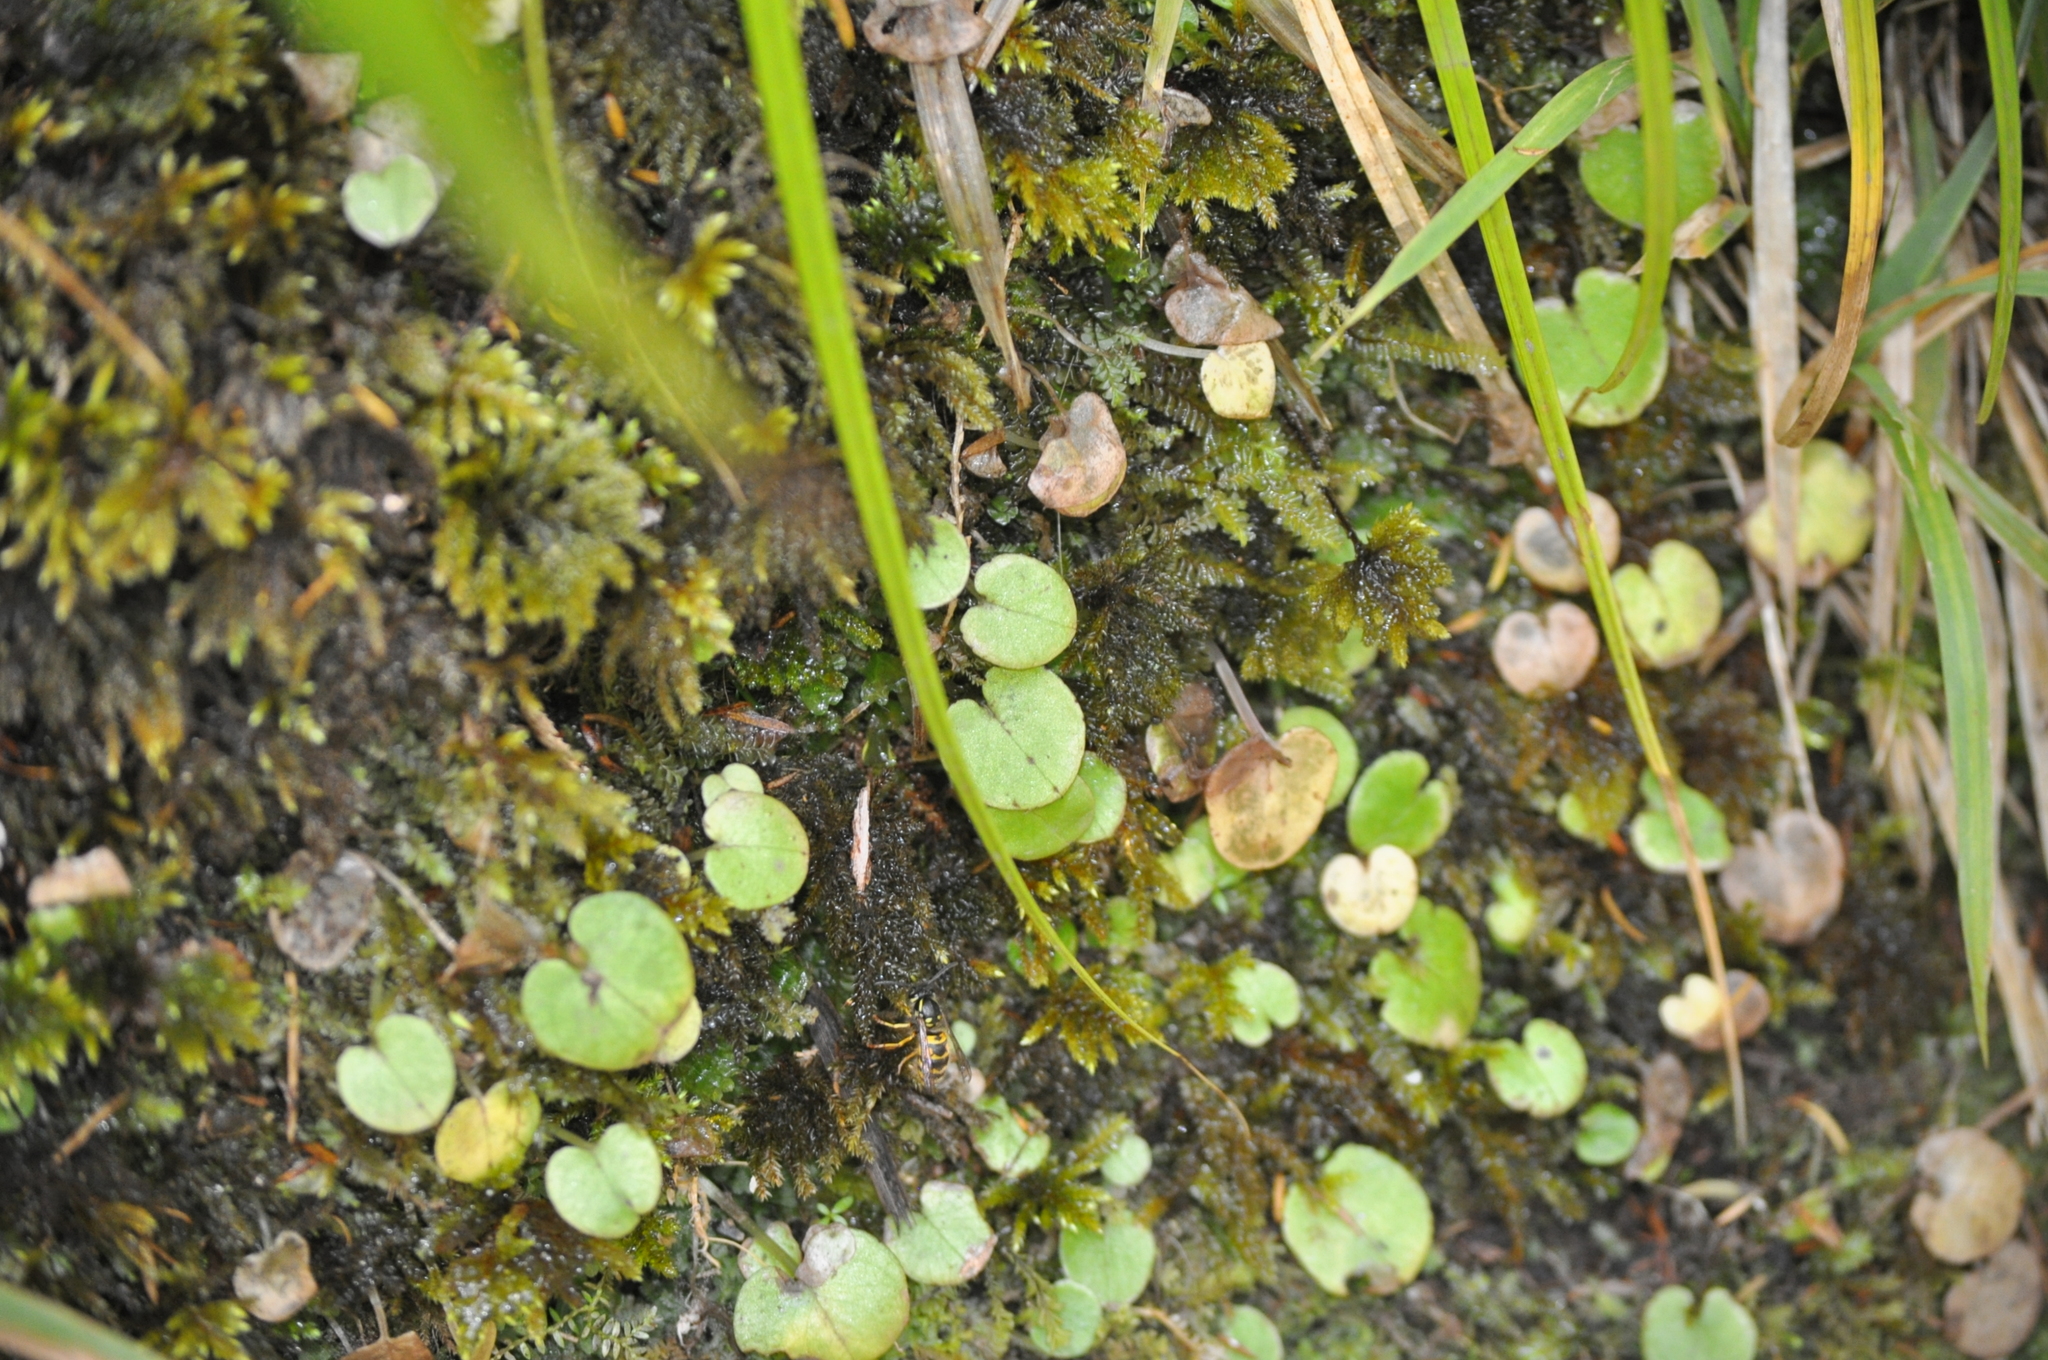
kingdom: Plantae
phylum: Tracheophyta
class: Liliopsida
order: Asparagales
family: Orchidaceae
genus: Corybas
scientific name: Corybas rivularis
